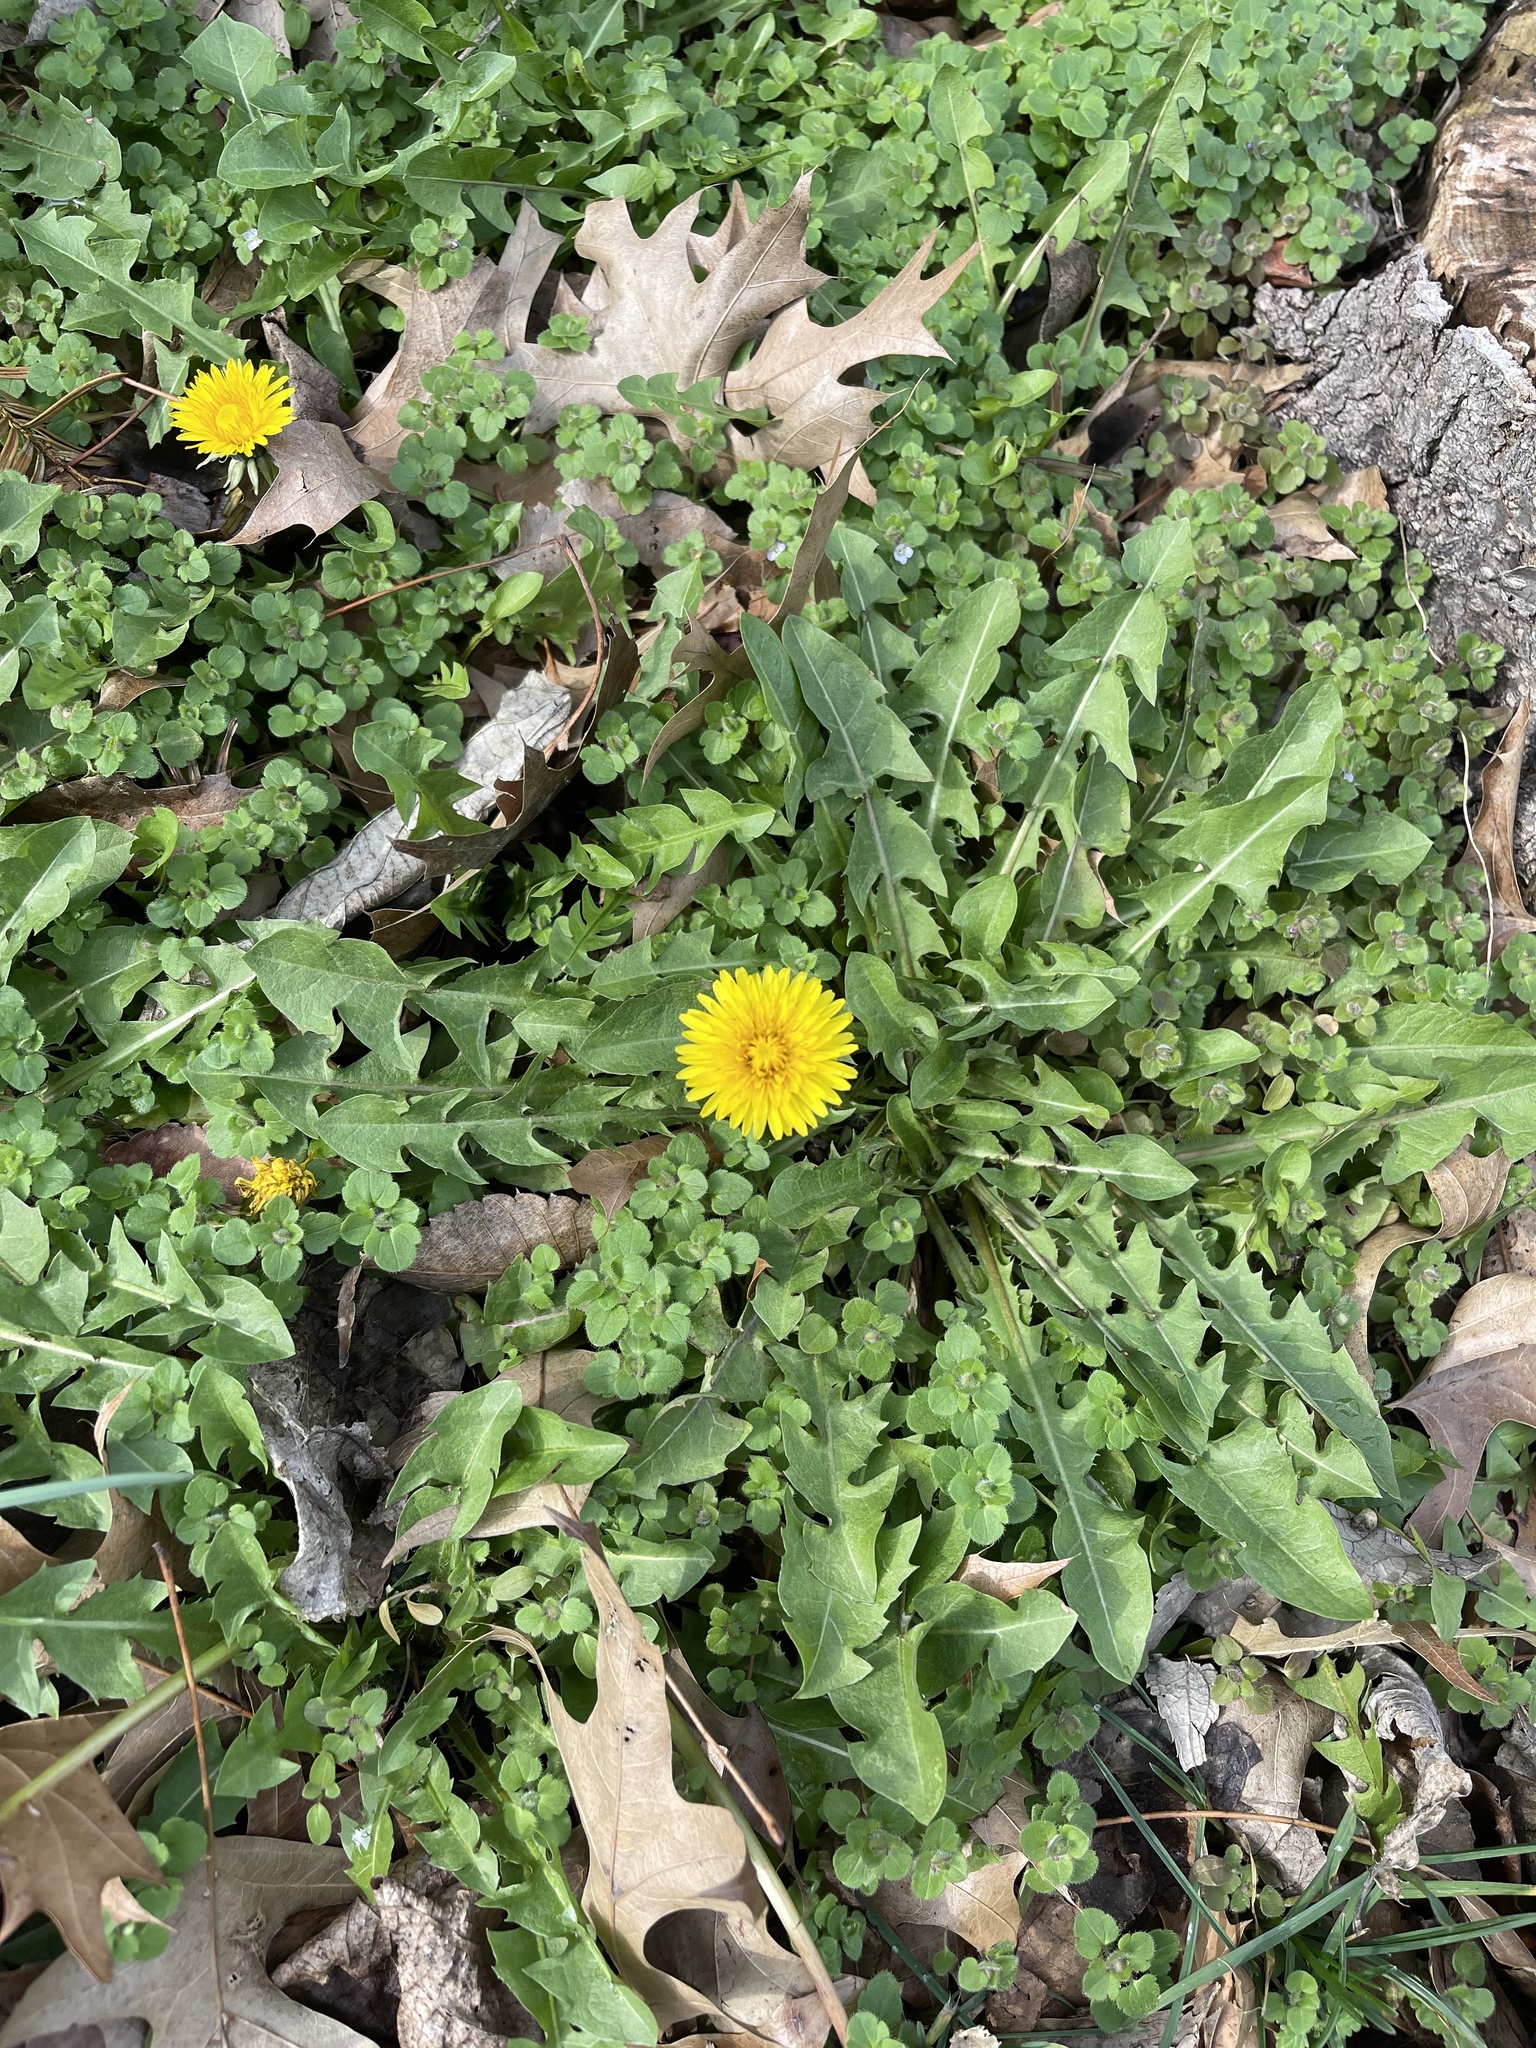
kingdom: Plantae
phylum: Tracheophyta
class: Magnoliopsida
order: Asterales
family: Asteraceae
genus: Taraxacum
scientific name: Taraxacum officinale
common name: Common dandelion
